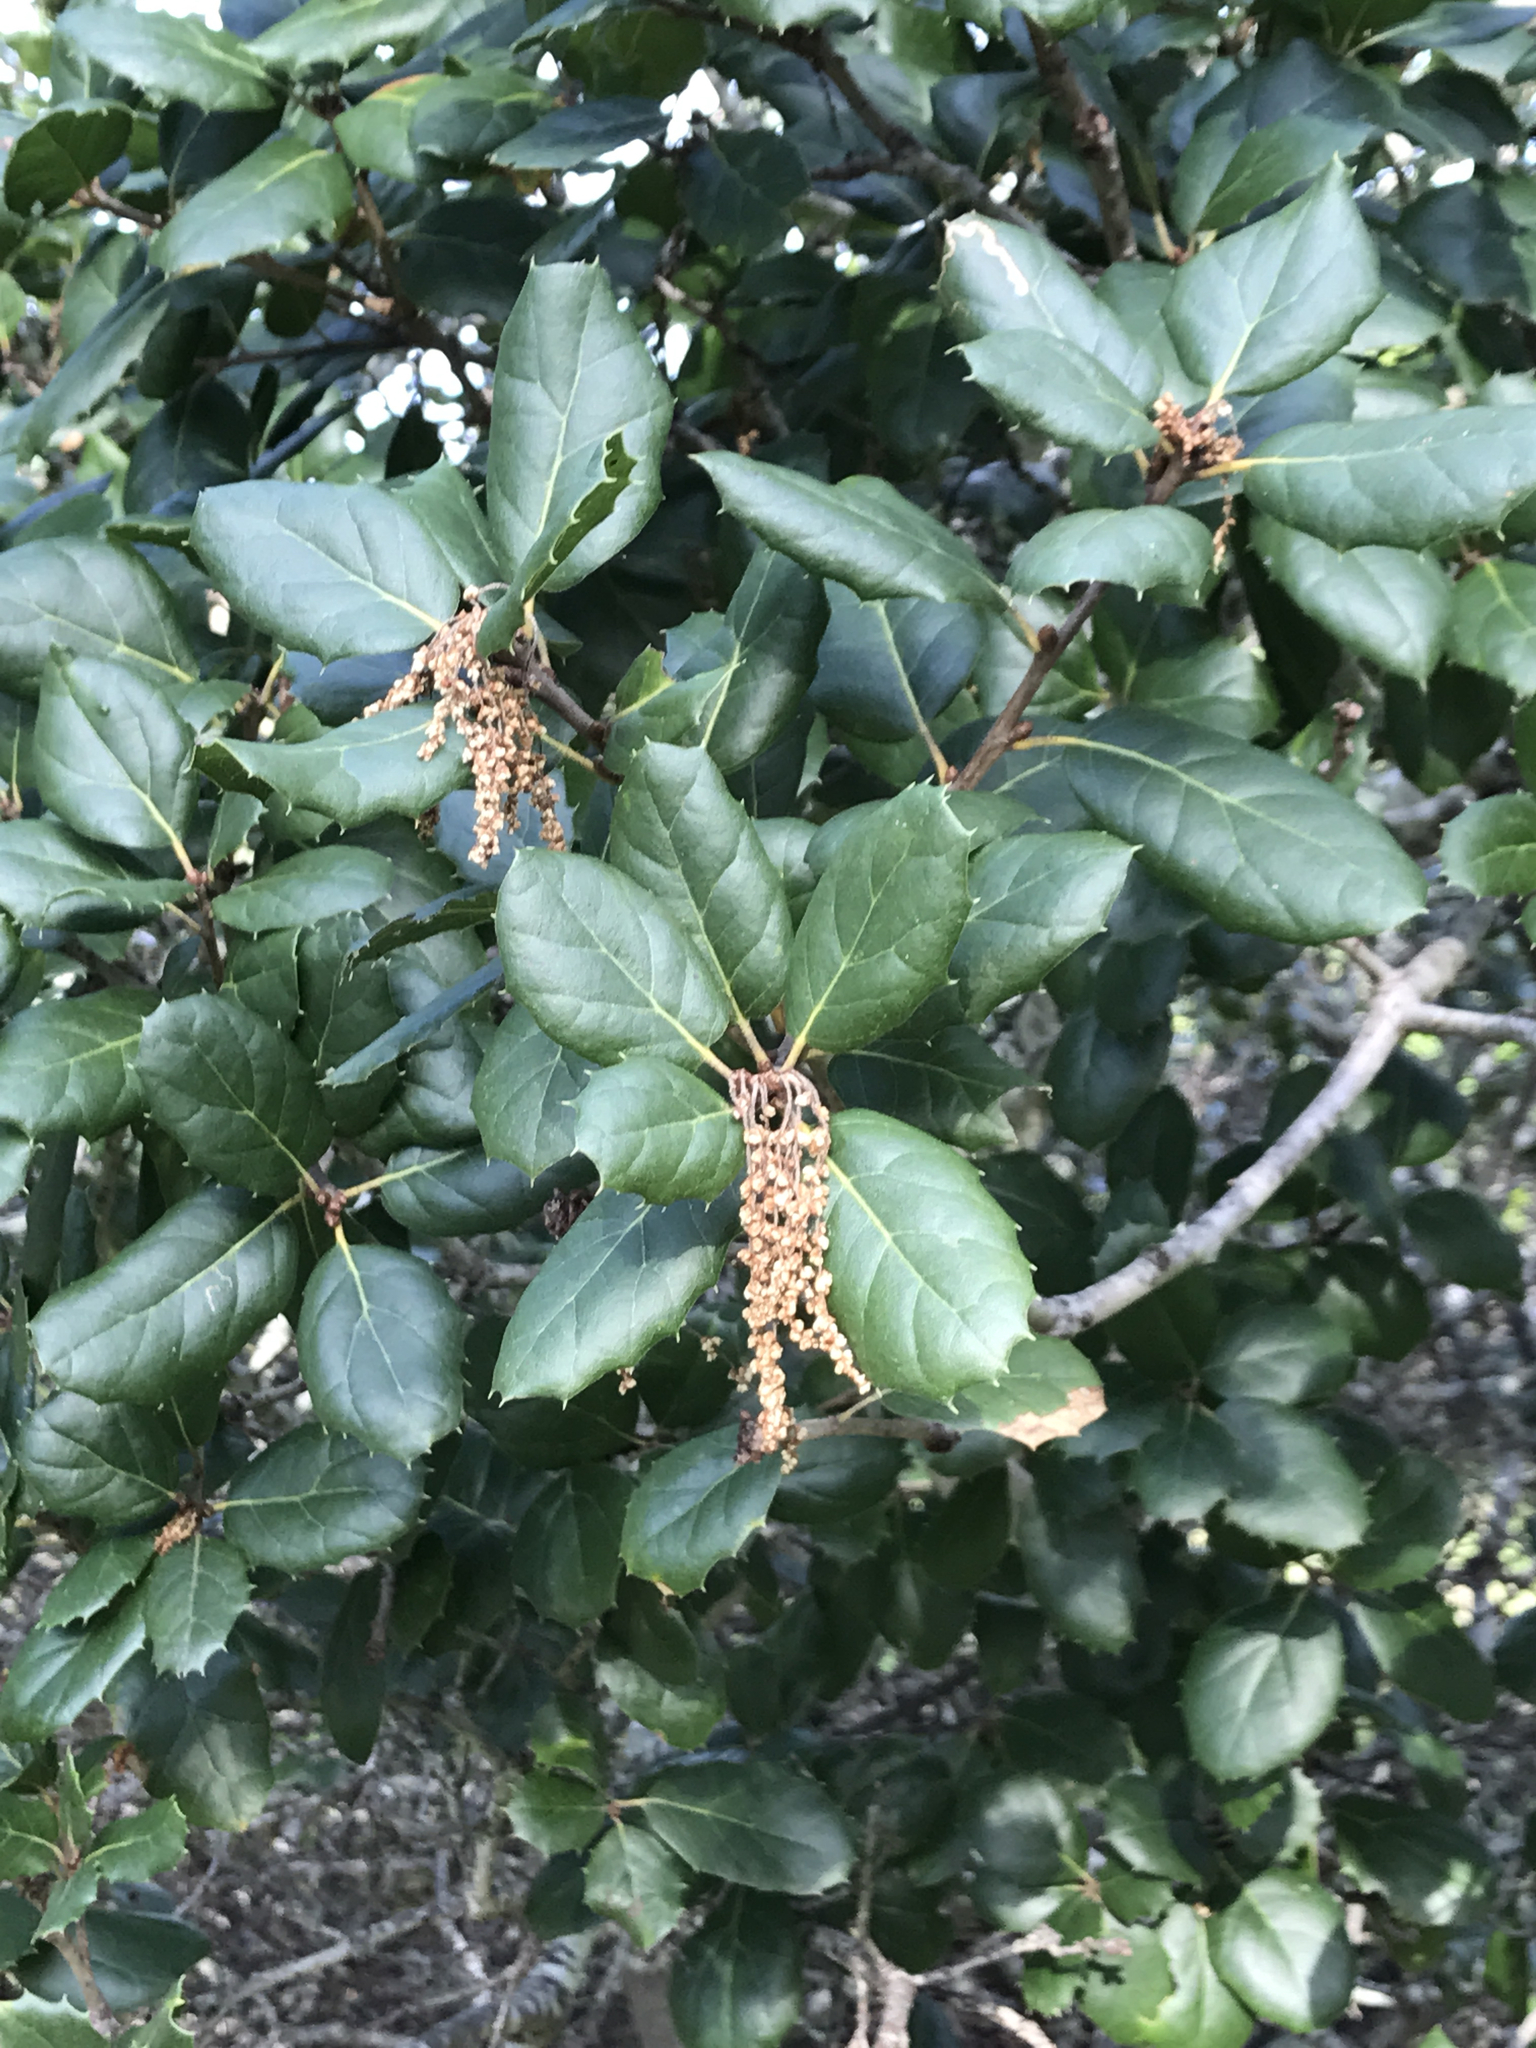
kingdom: Plantae
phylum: Tracheophyta
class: Magnoliopsida
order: Fagales
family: Fagaceae
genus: Quercus
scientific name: Quercus agrifolia
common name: California live oak
